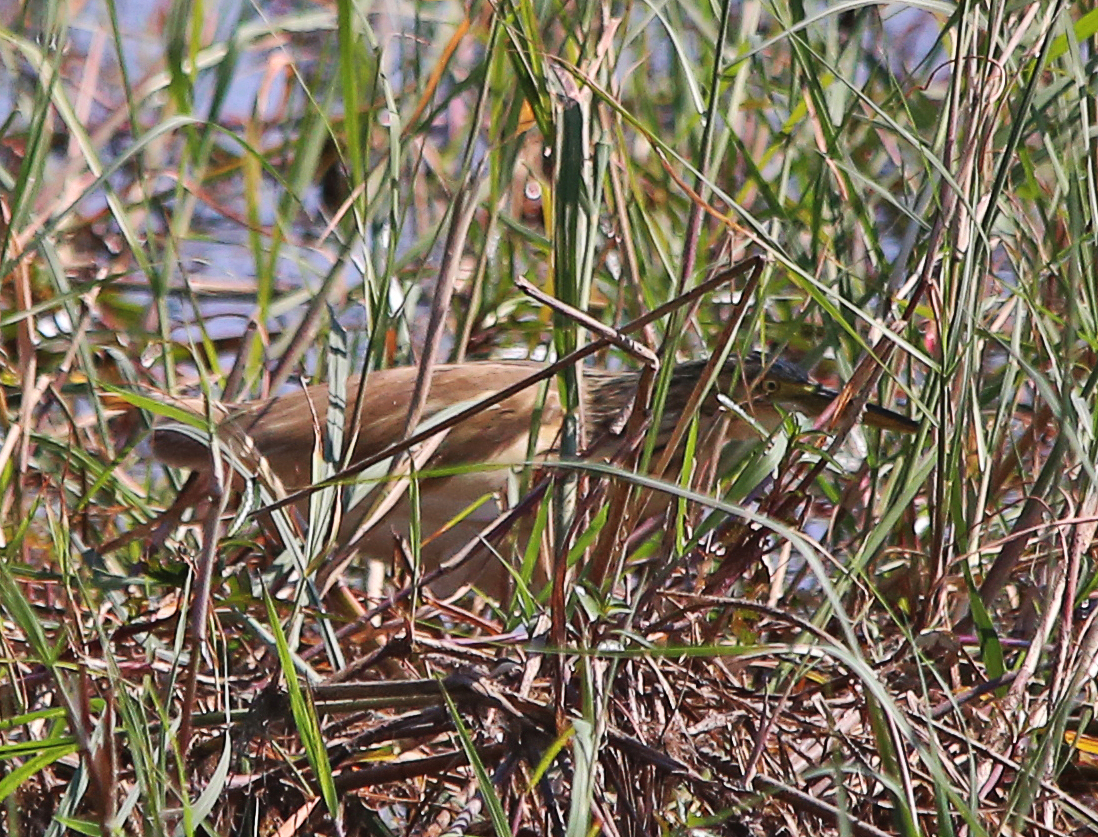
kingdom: Animalia
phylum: Chordata
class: Aves
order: Pelecaniformes
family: Ardeidae
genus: Ardeola
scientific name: Ardeola ralloides
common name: Squacco heron
